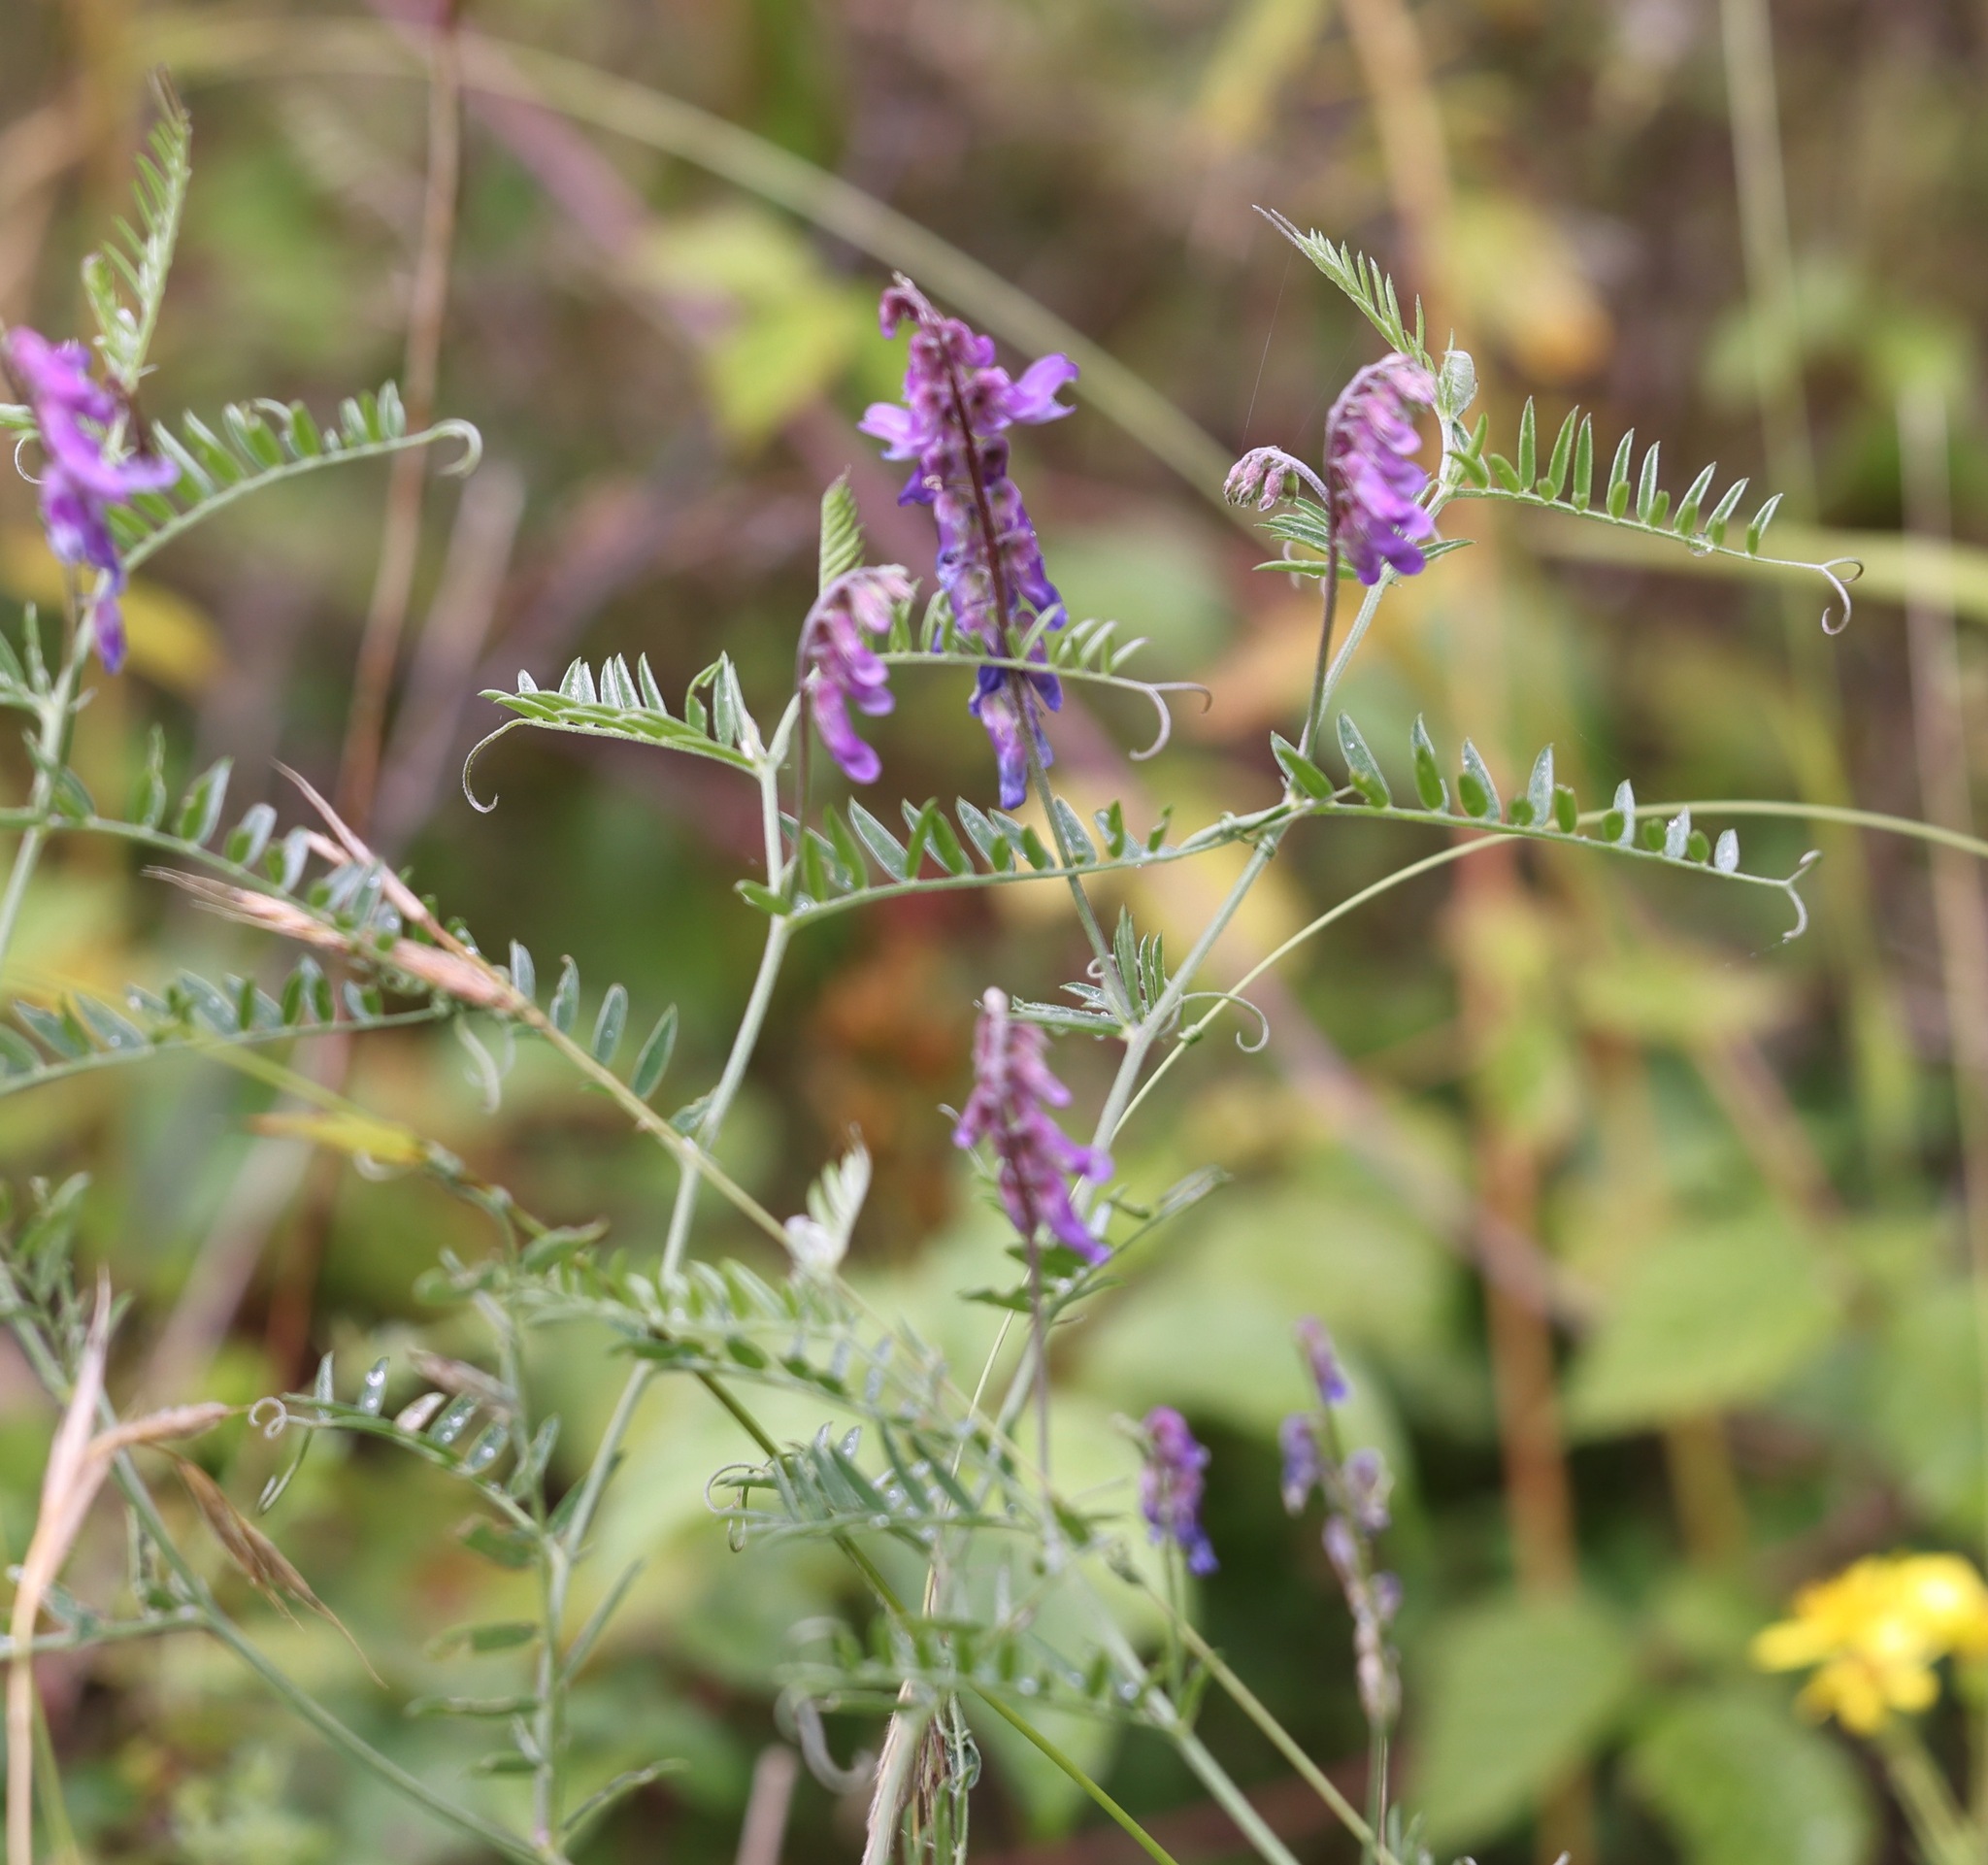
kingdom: Plantae
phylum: Tracheophyta
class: Magnoliopsida
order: Fabales
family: Fabaceae
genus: Vicia
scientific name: Vicia cracca
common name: Bird vetch
